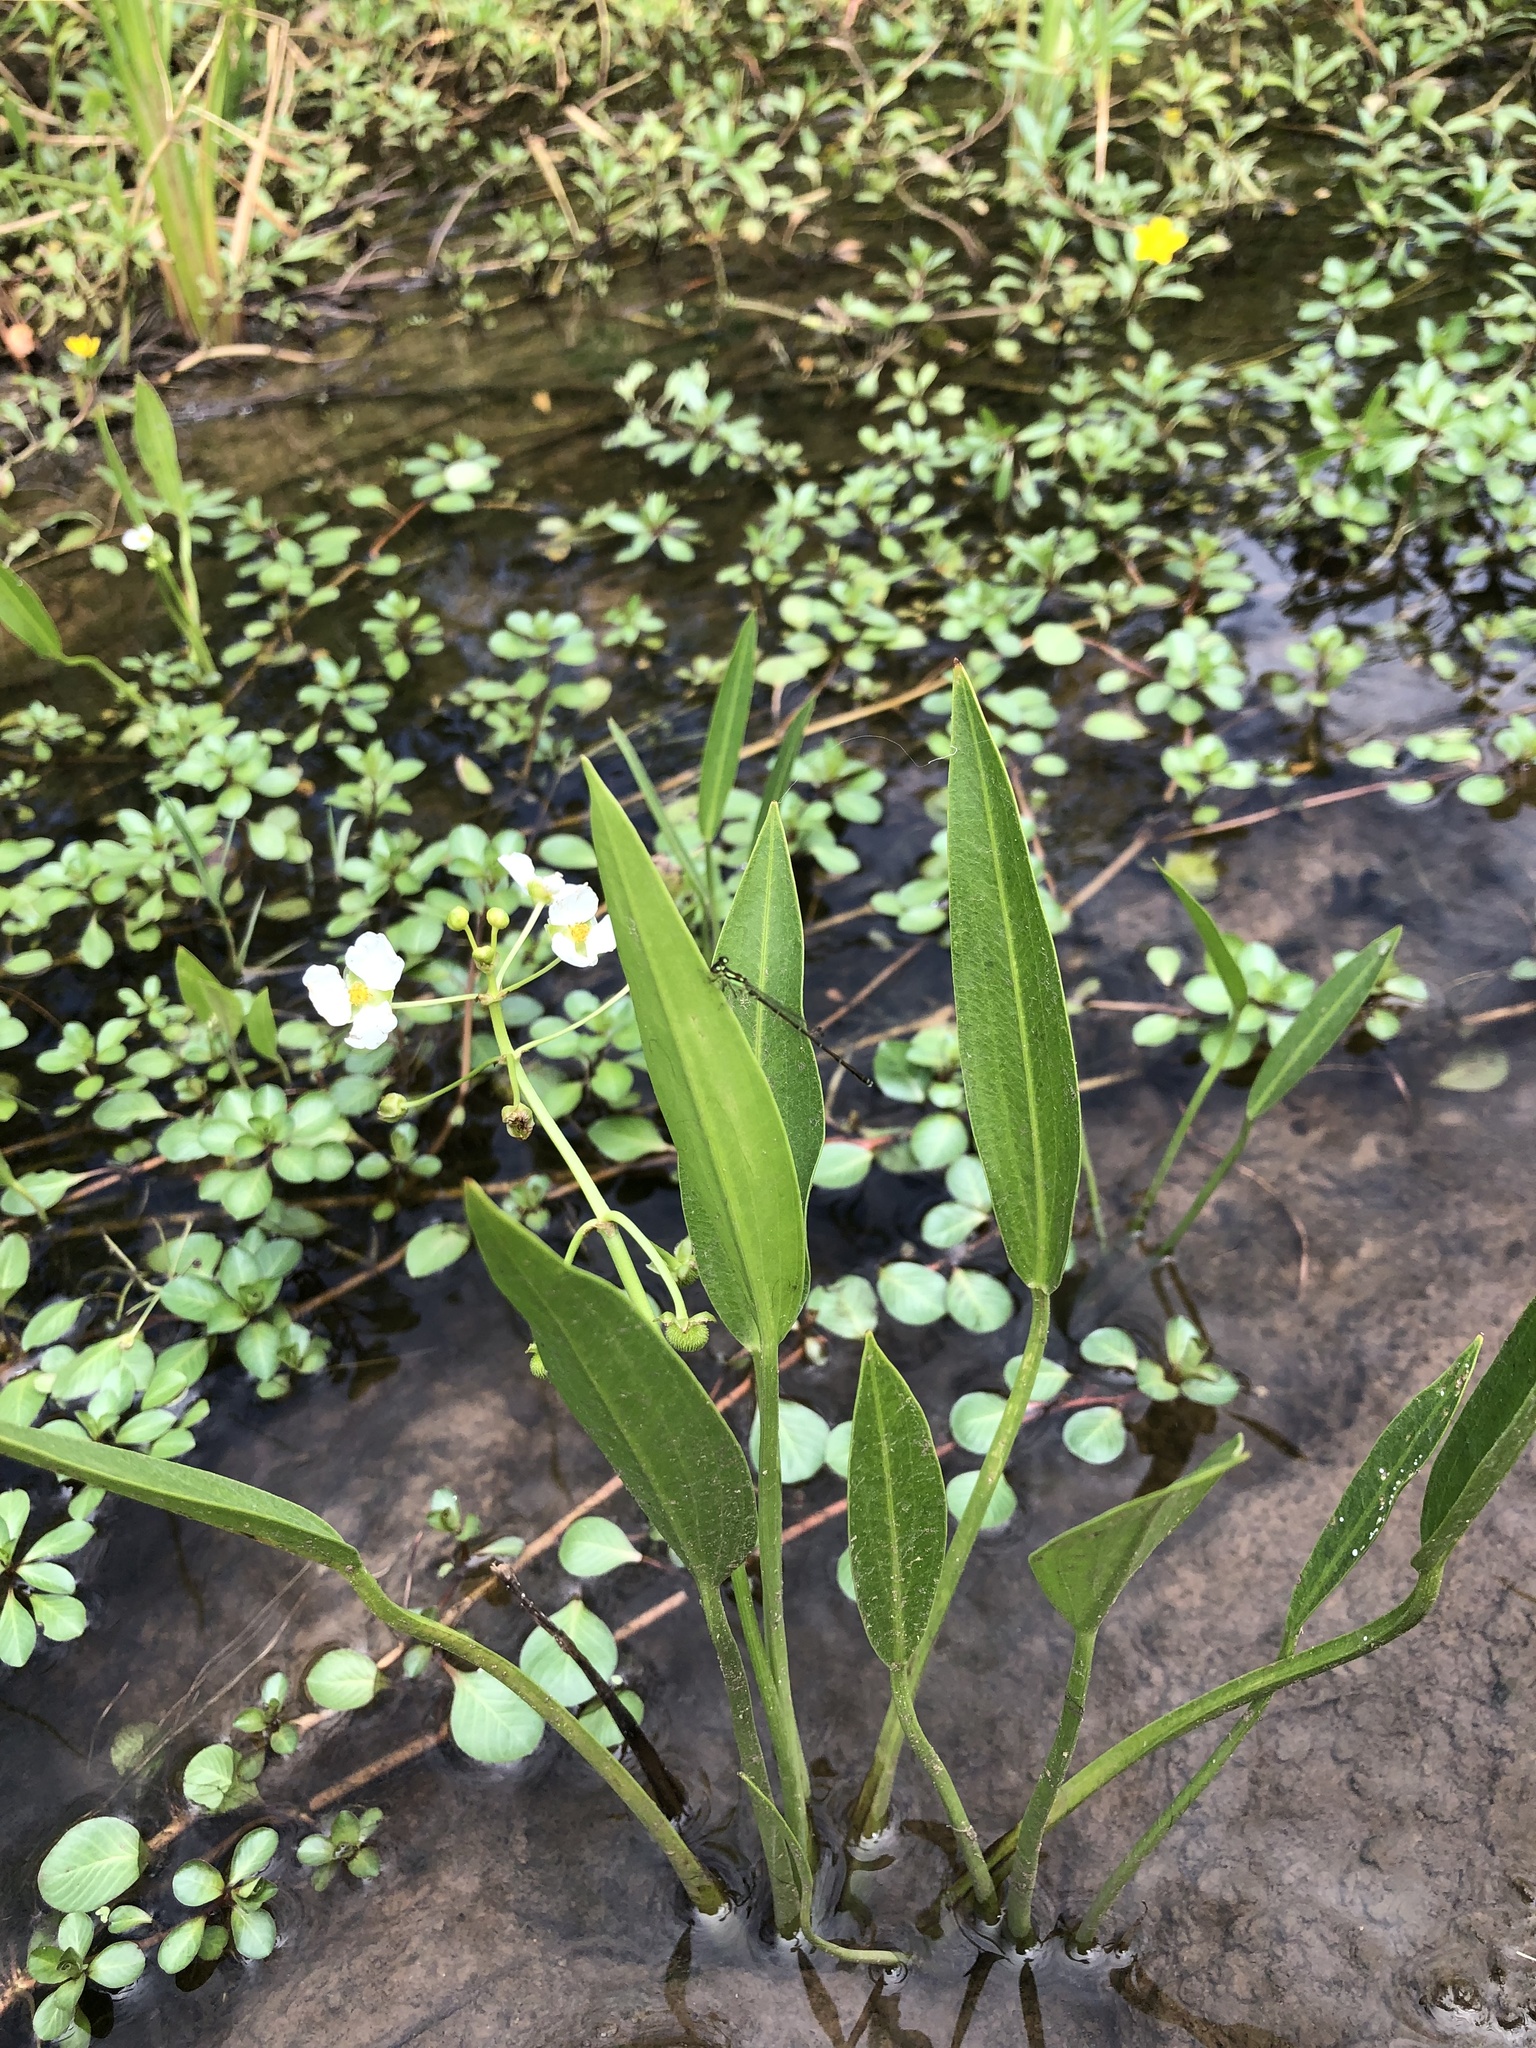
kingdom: Plantae
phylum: Tracheophyta
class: Liliopsida
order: Alismatales
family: Alismataceae
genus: Sagittaria
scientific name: Sagittaria platyphylla
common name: Broad-leaf arrowhead
